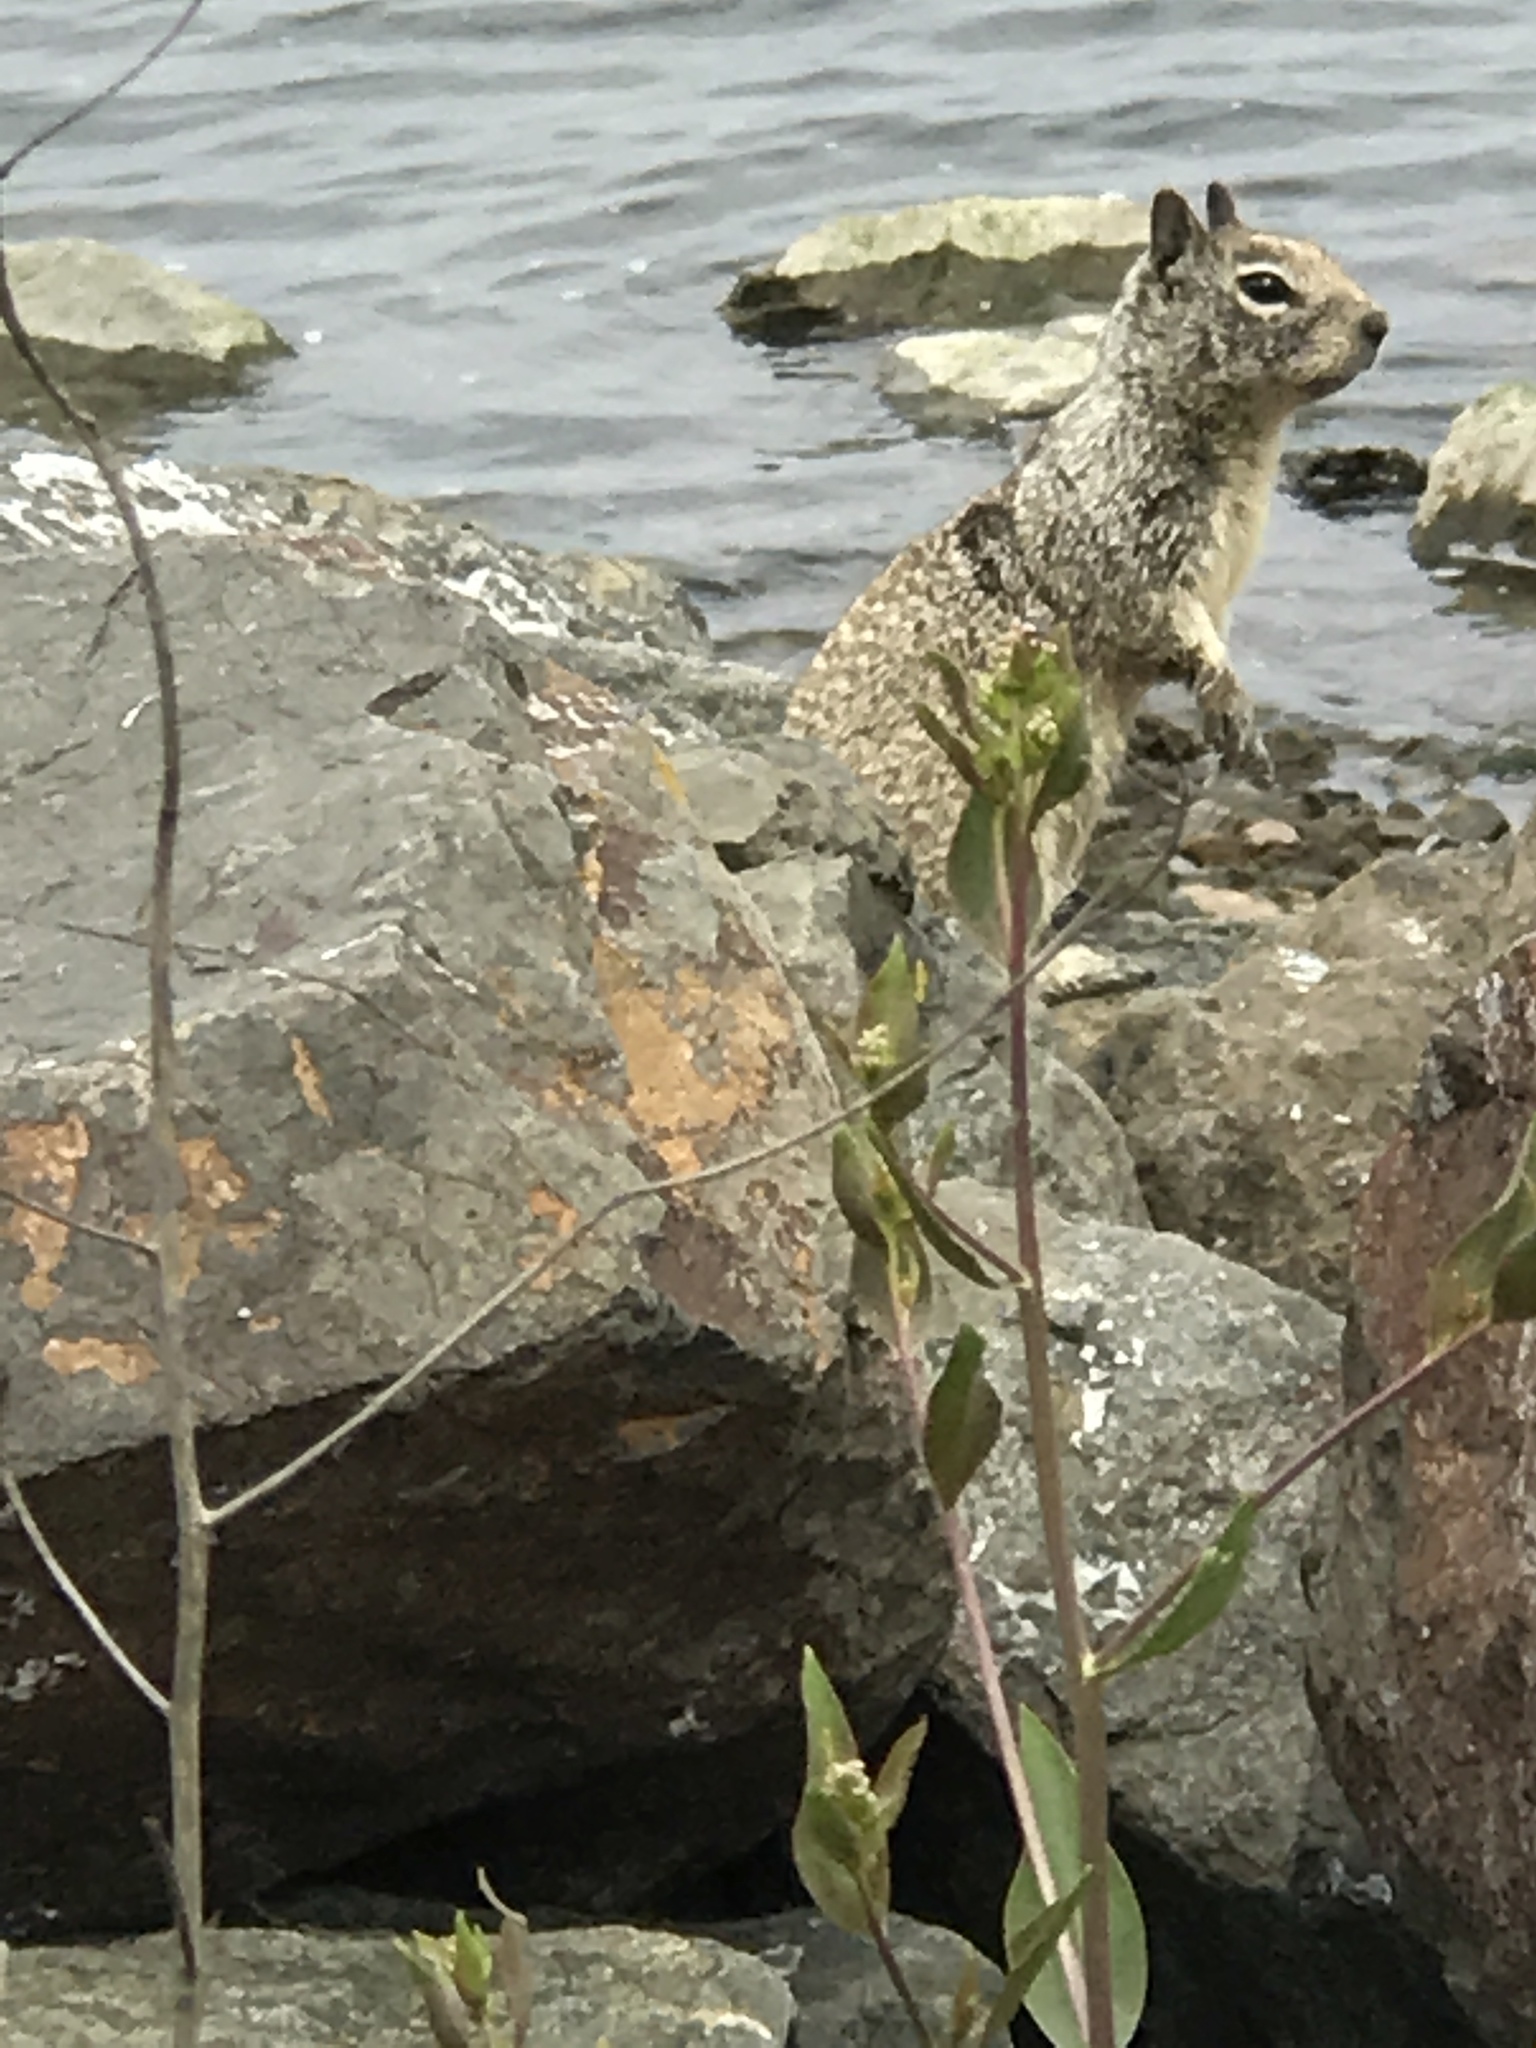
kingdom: Animalia
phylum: Chordata
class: Mammalia
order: Rodentia
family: Sciuridae
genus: Otospermophilus
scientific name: Otospermophilus beecheyi
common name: California ground squirrel
